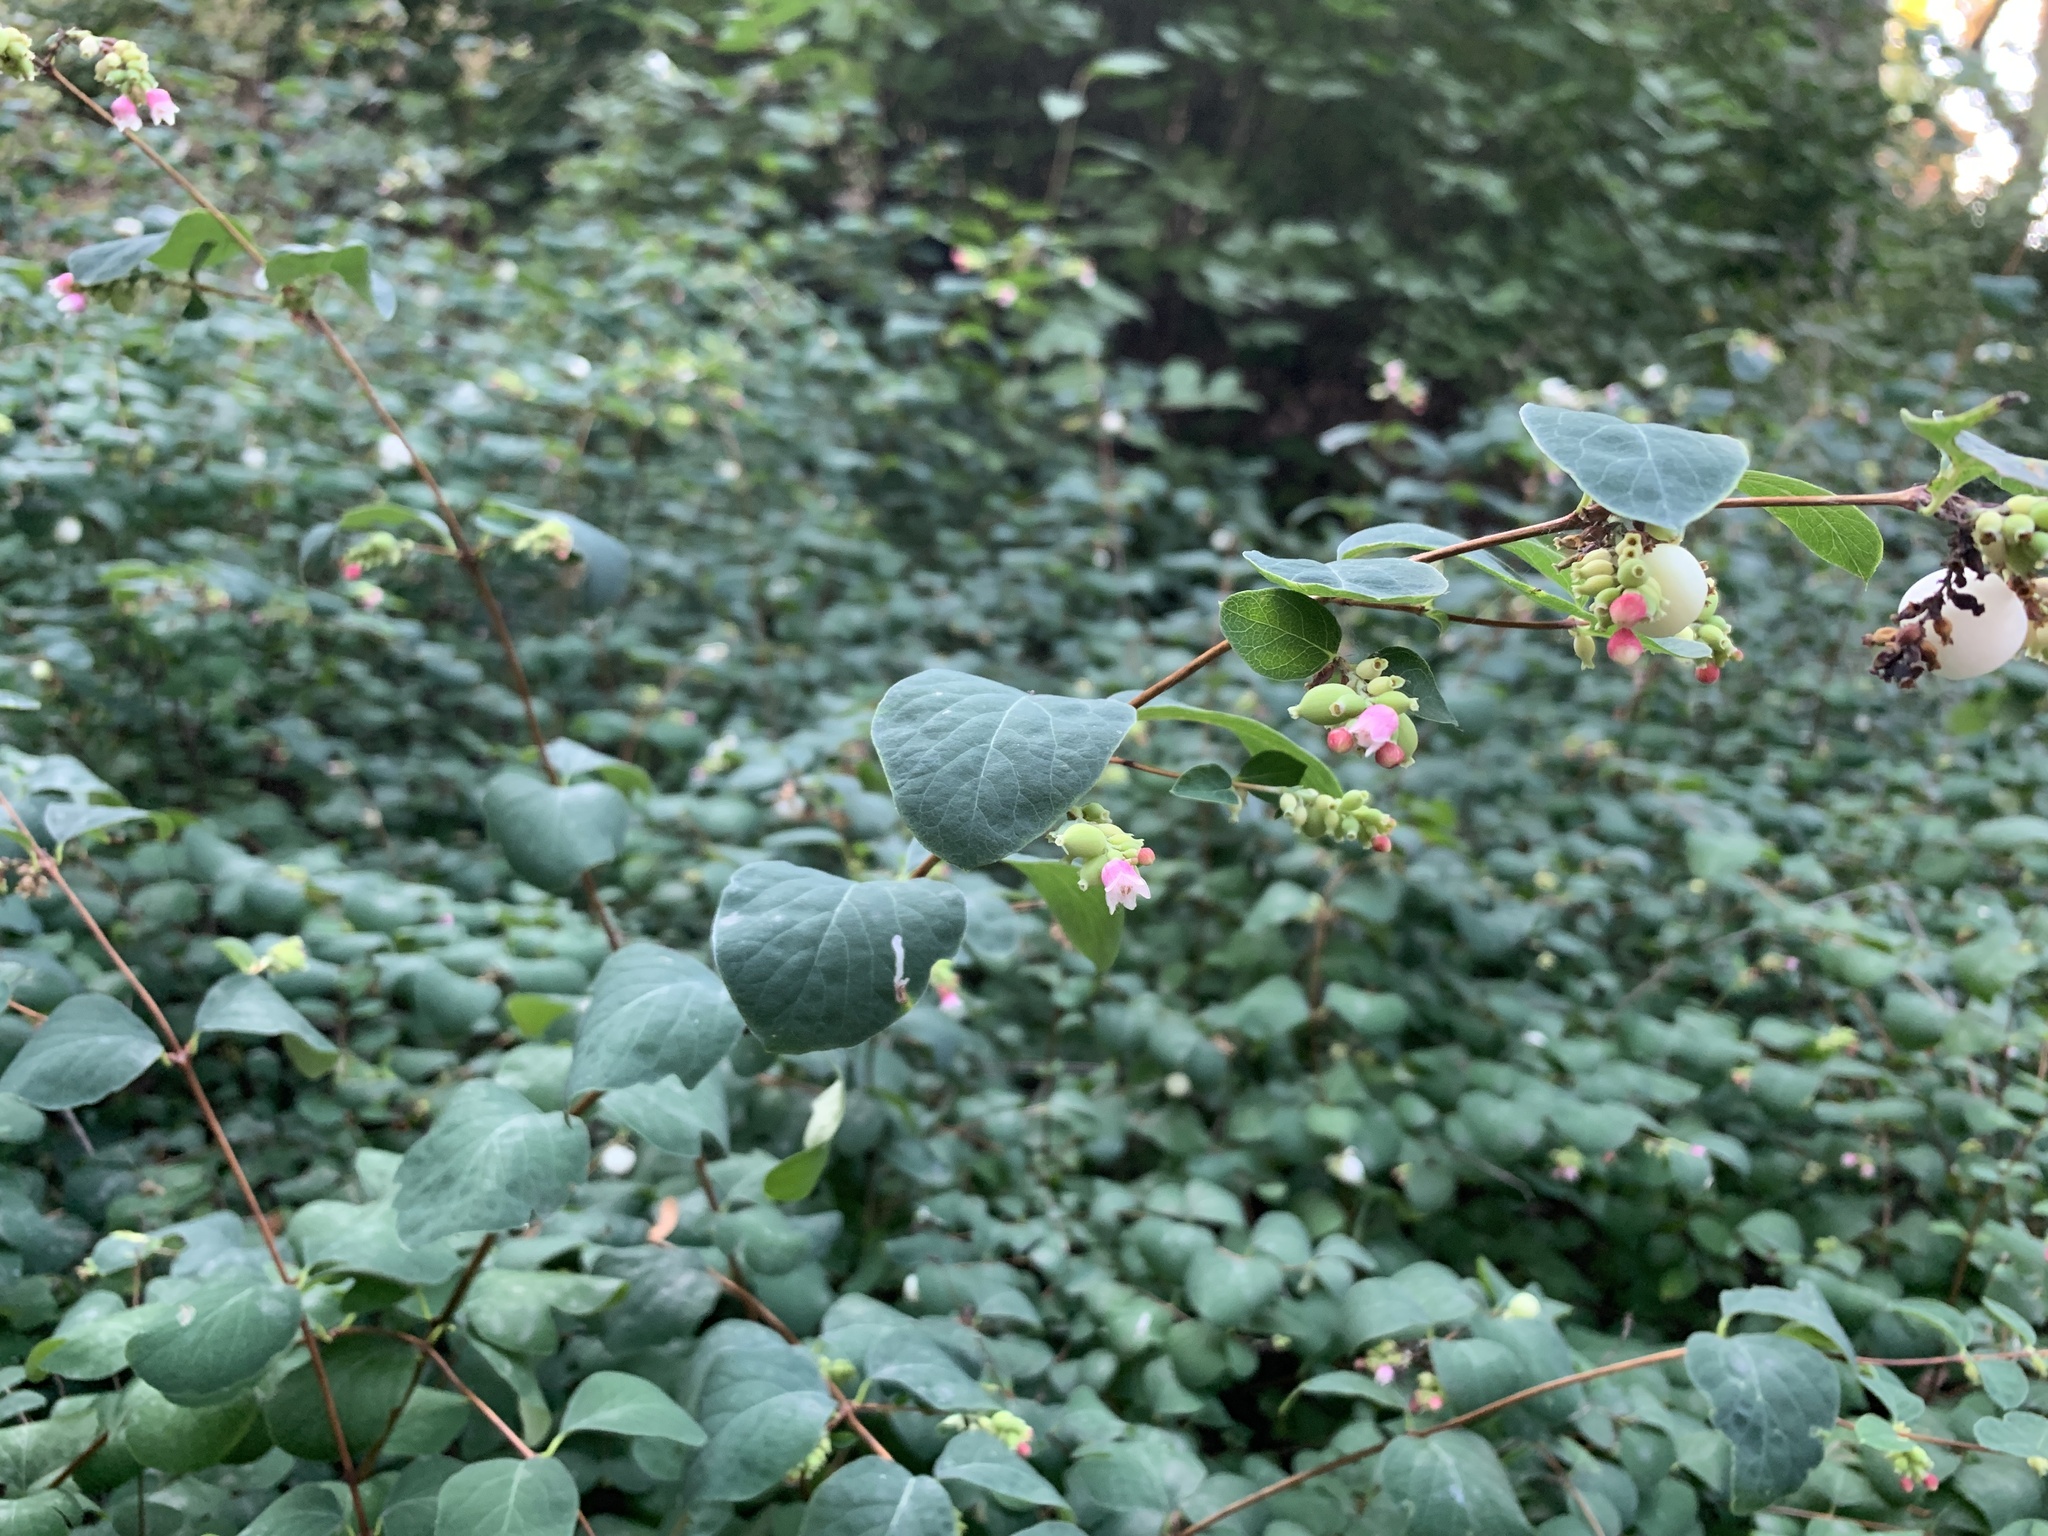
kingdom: Plantae
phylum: Tracheophyta
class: Magnoliopsida
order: Dipsacales
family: Caprifoliaceae
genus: Symphoricarpos
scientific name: Symphoricarpos albus
